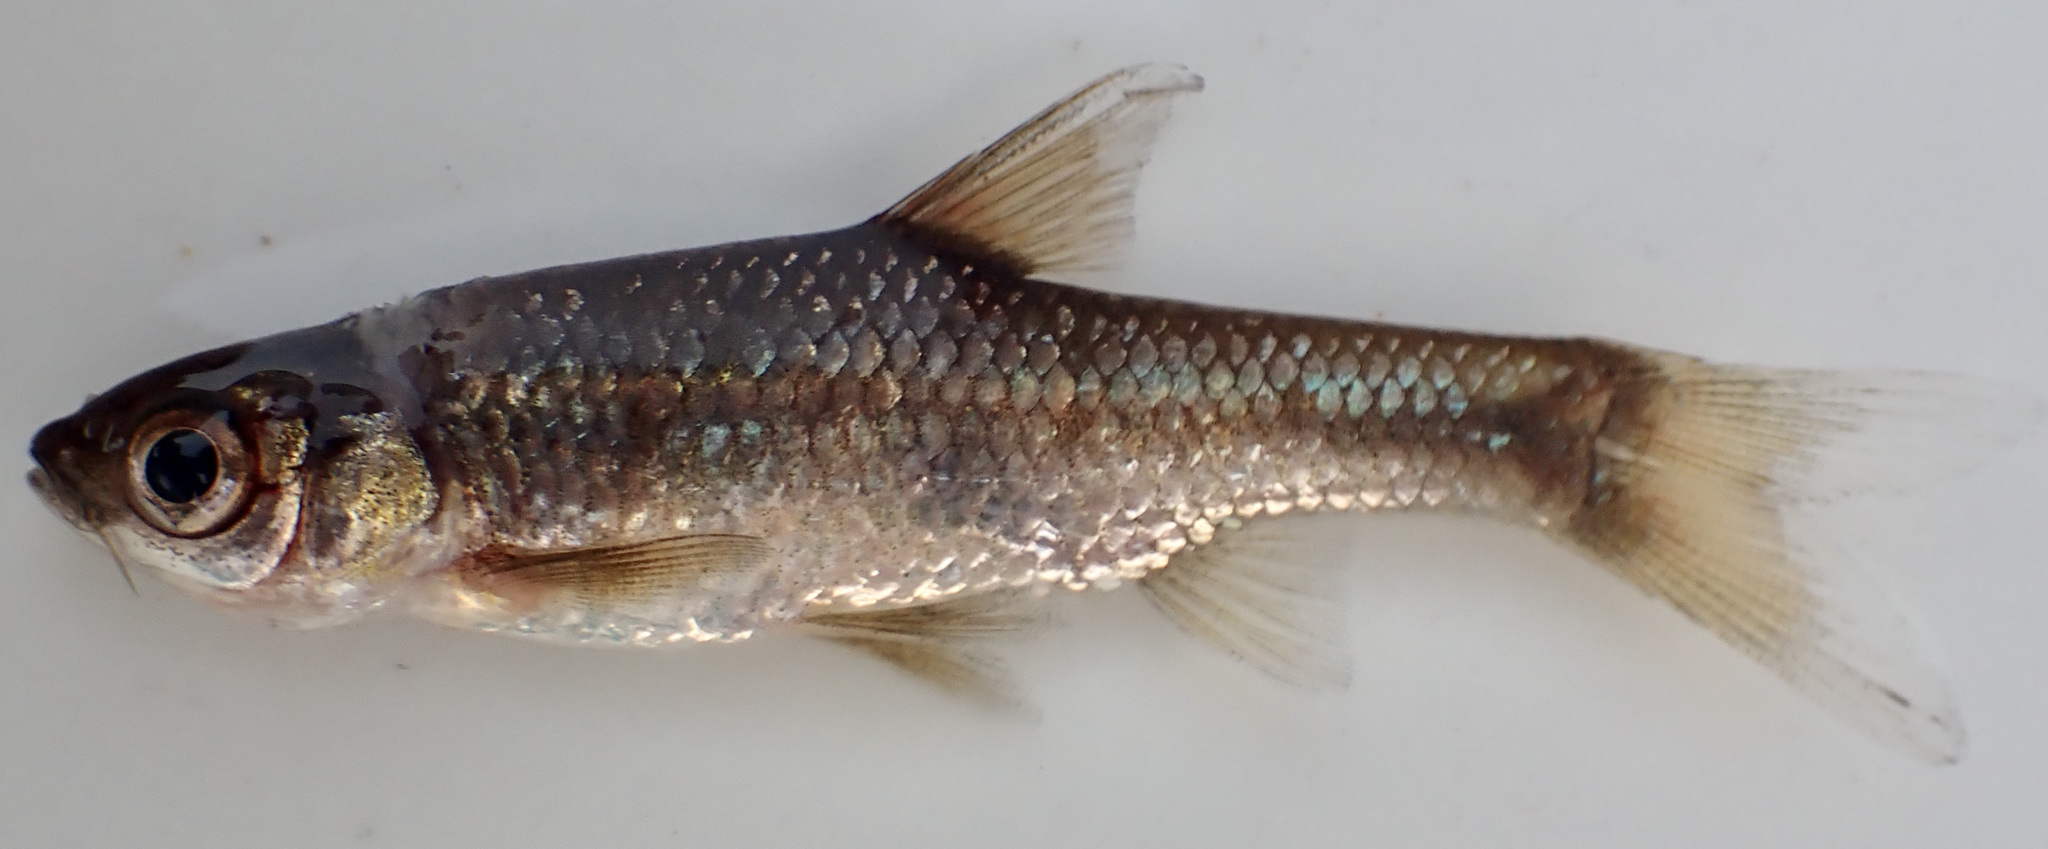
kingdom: Animalia
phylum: Chordata
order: Cypriniformes
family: Cyprinidae
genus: Enteromius
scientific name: Enteromius paludinosus
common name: Straightfin barb
